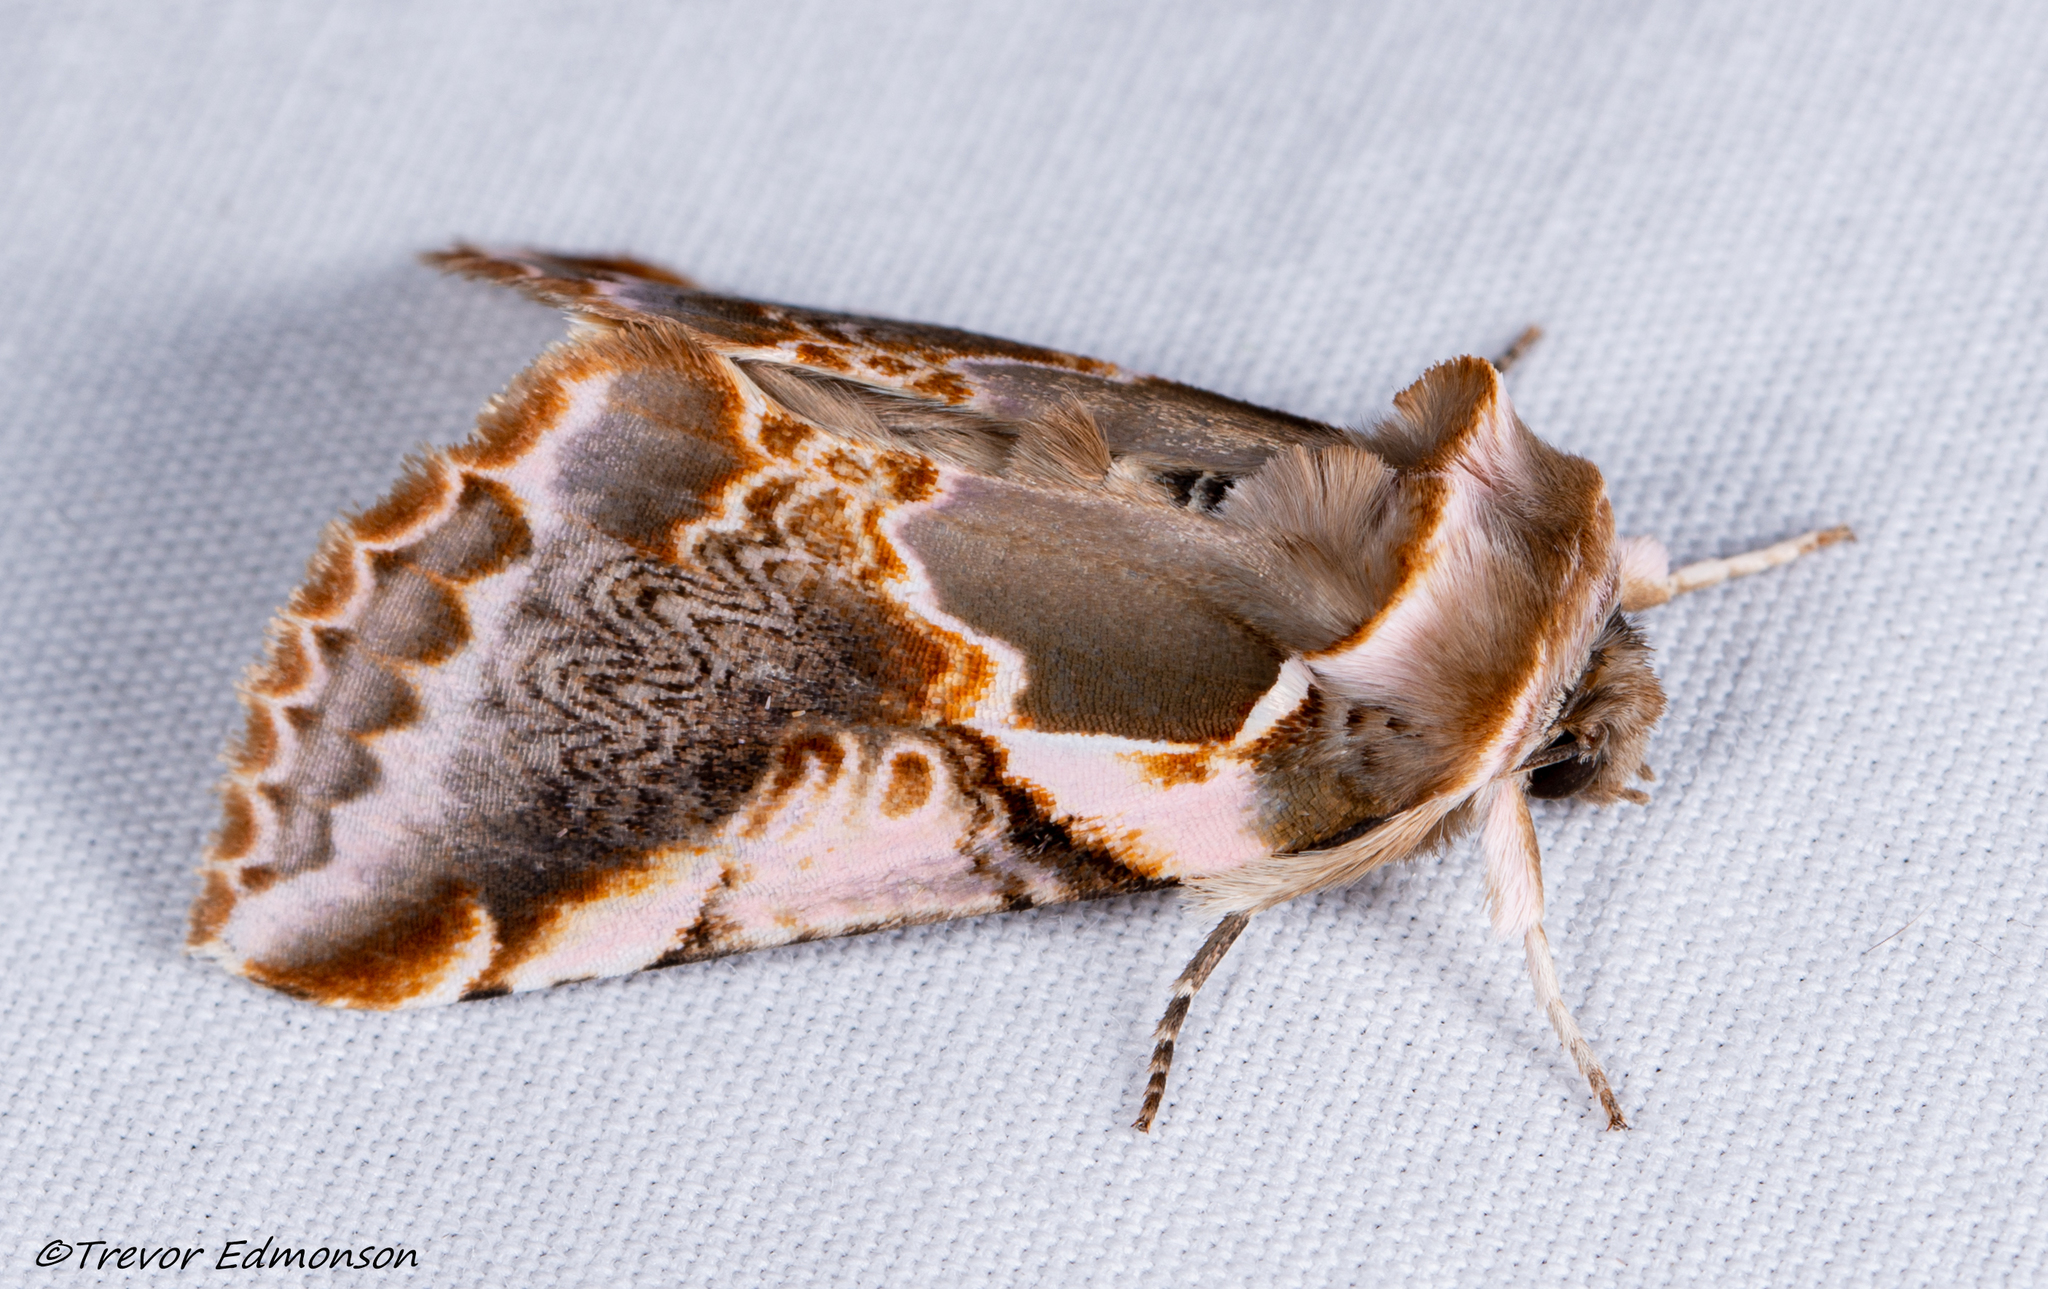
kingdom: Animalia
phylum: Arthropoda
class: Insecta
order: Lepidoptera
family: Drepanidae
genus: Habrosyne
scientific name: Habrosyne gloriosa
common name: Glorious habrosyne moth
